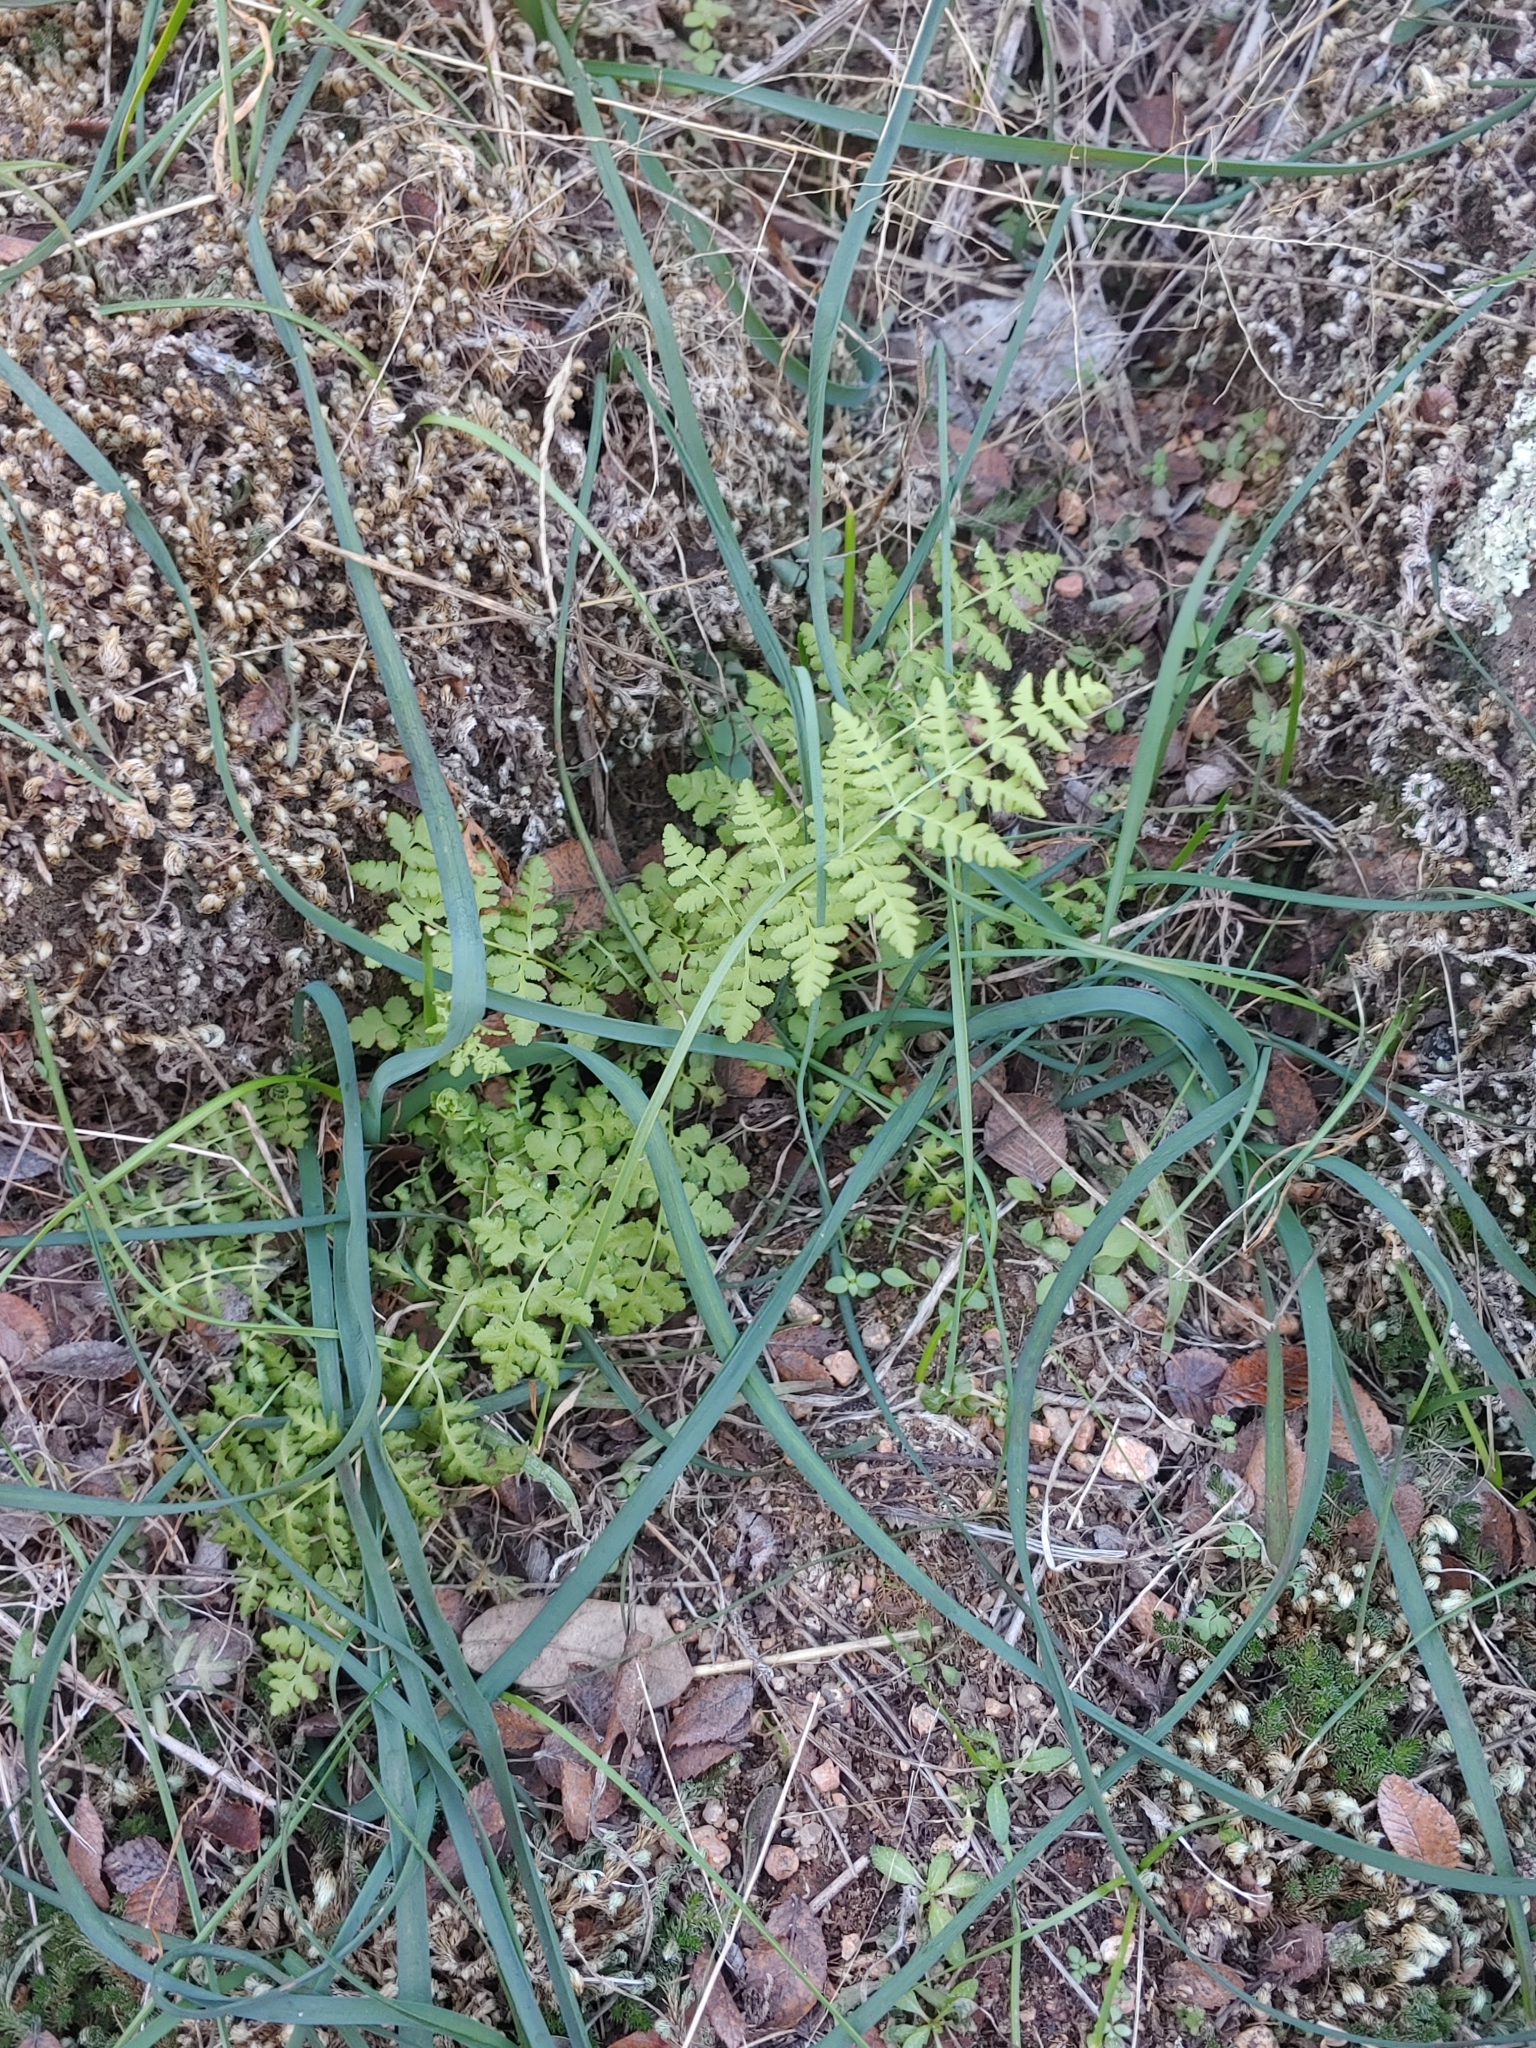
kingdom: Plantae
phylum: Tracheophyta
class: Polypodiopsida
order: Polypodiales
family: Woodsiaceae
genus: Physematium
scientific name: Physematium obtusum
